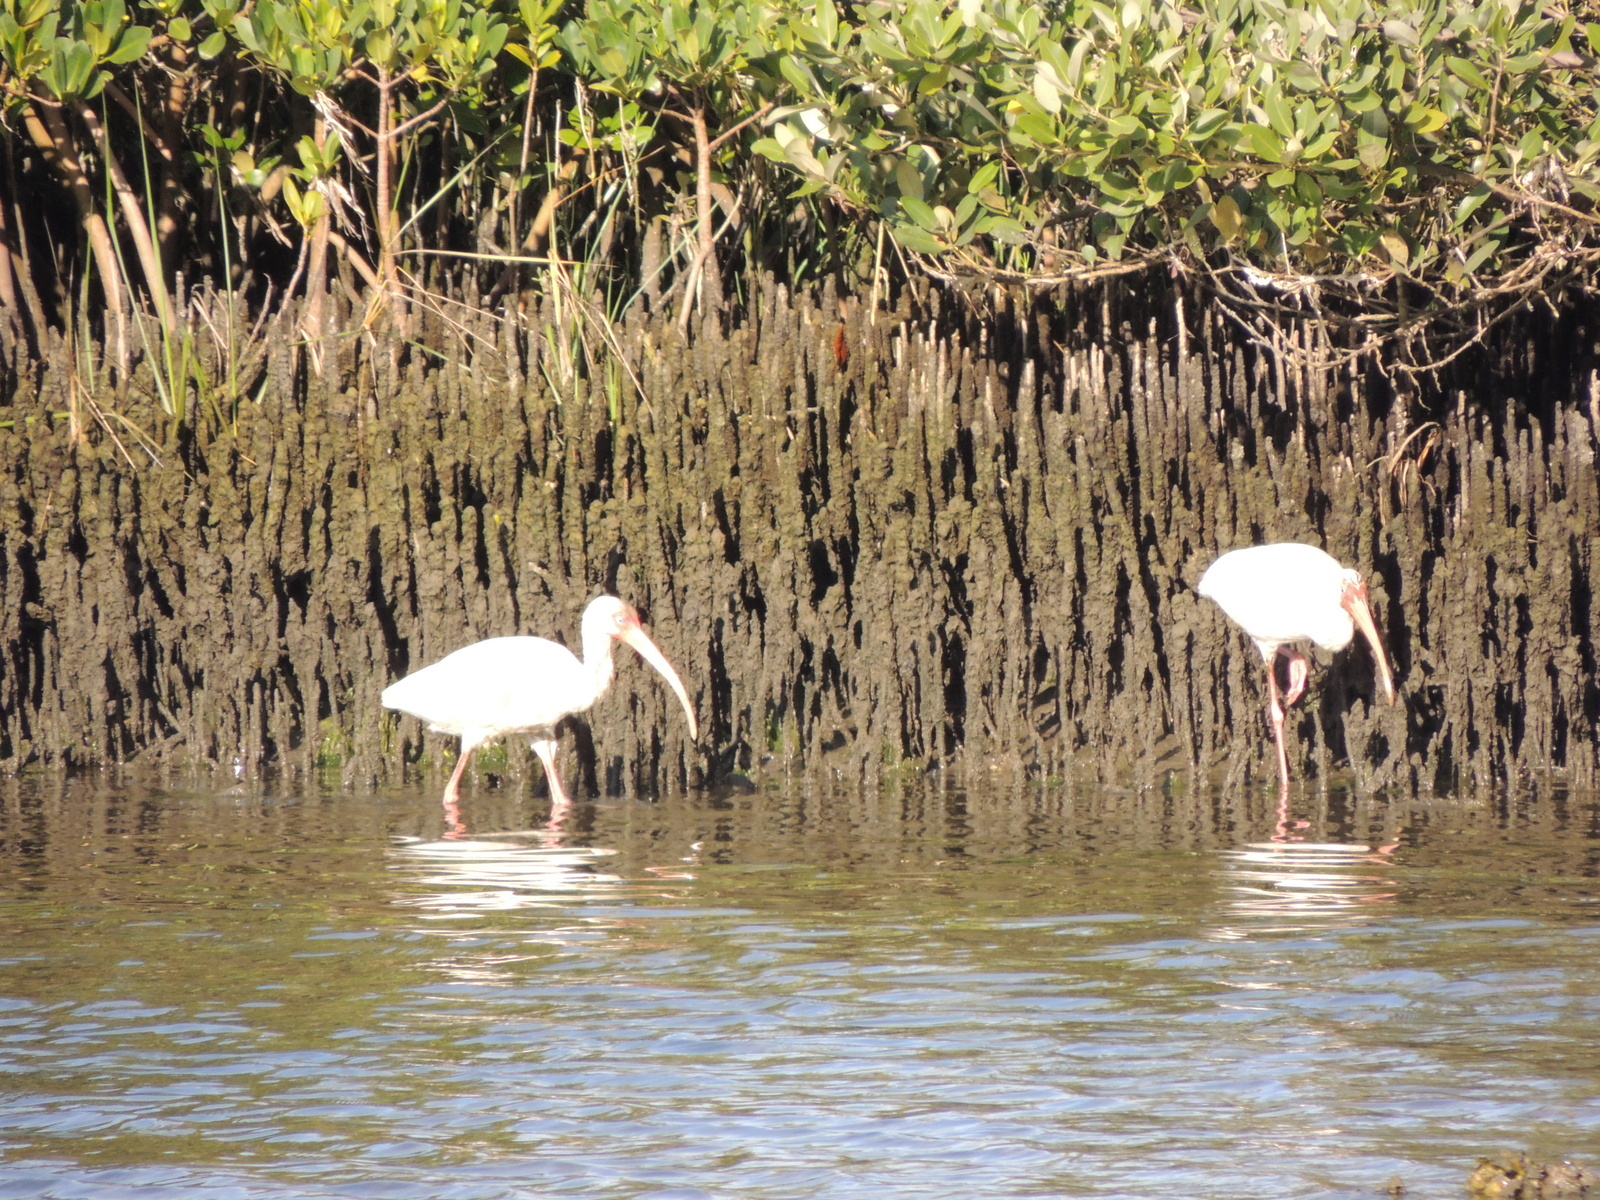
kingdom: Animalia
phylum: Chordata
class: Aves
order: Pelecaniformes
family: Threskiornithidae
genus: Eudocimus
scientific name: Eudocimus albus
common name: White ibis
